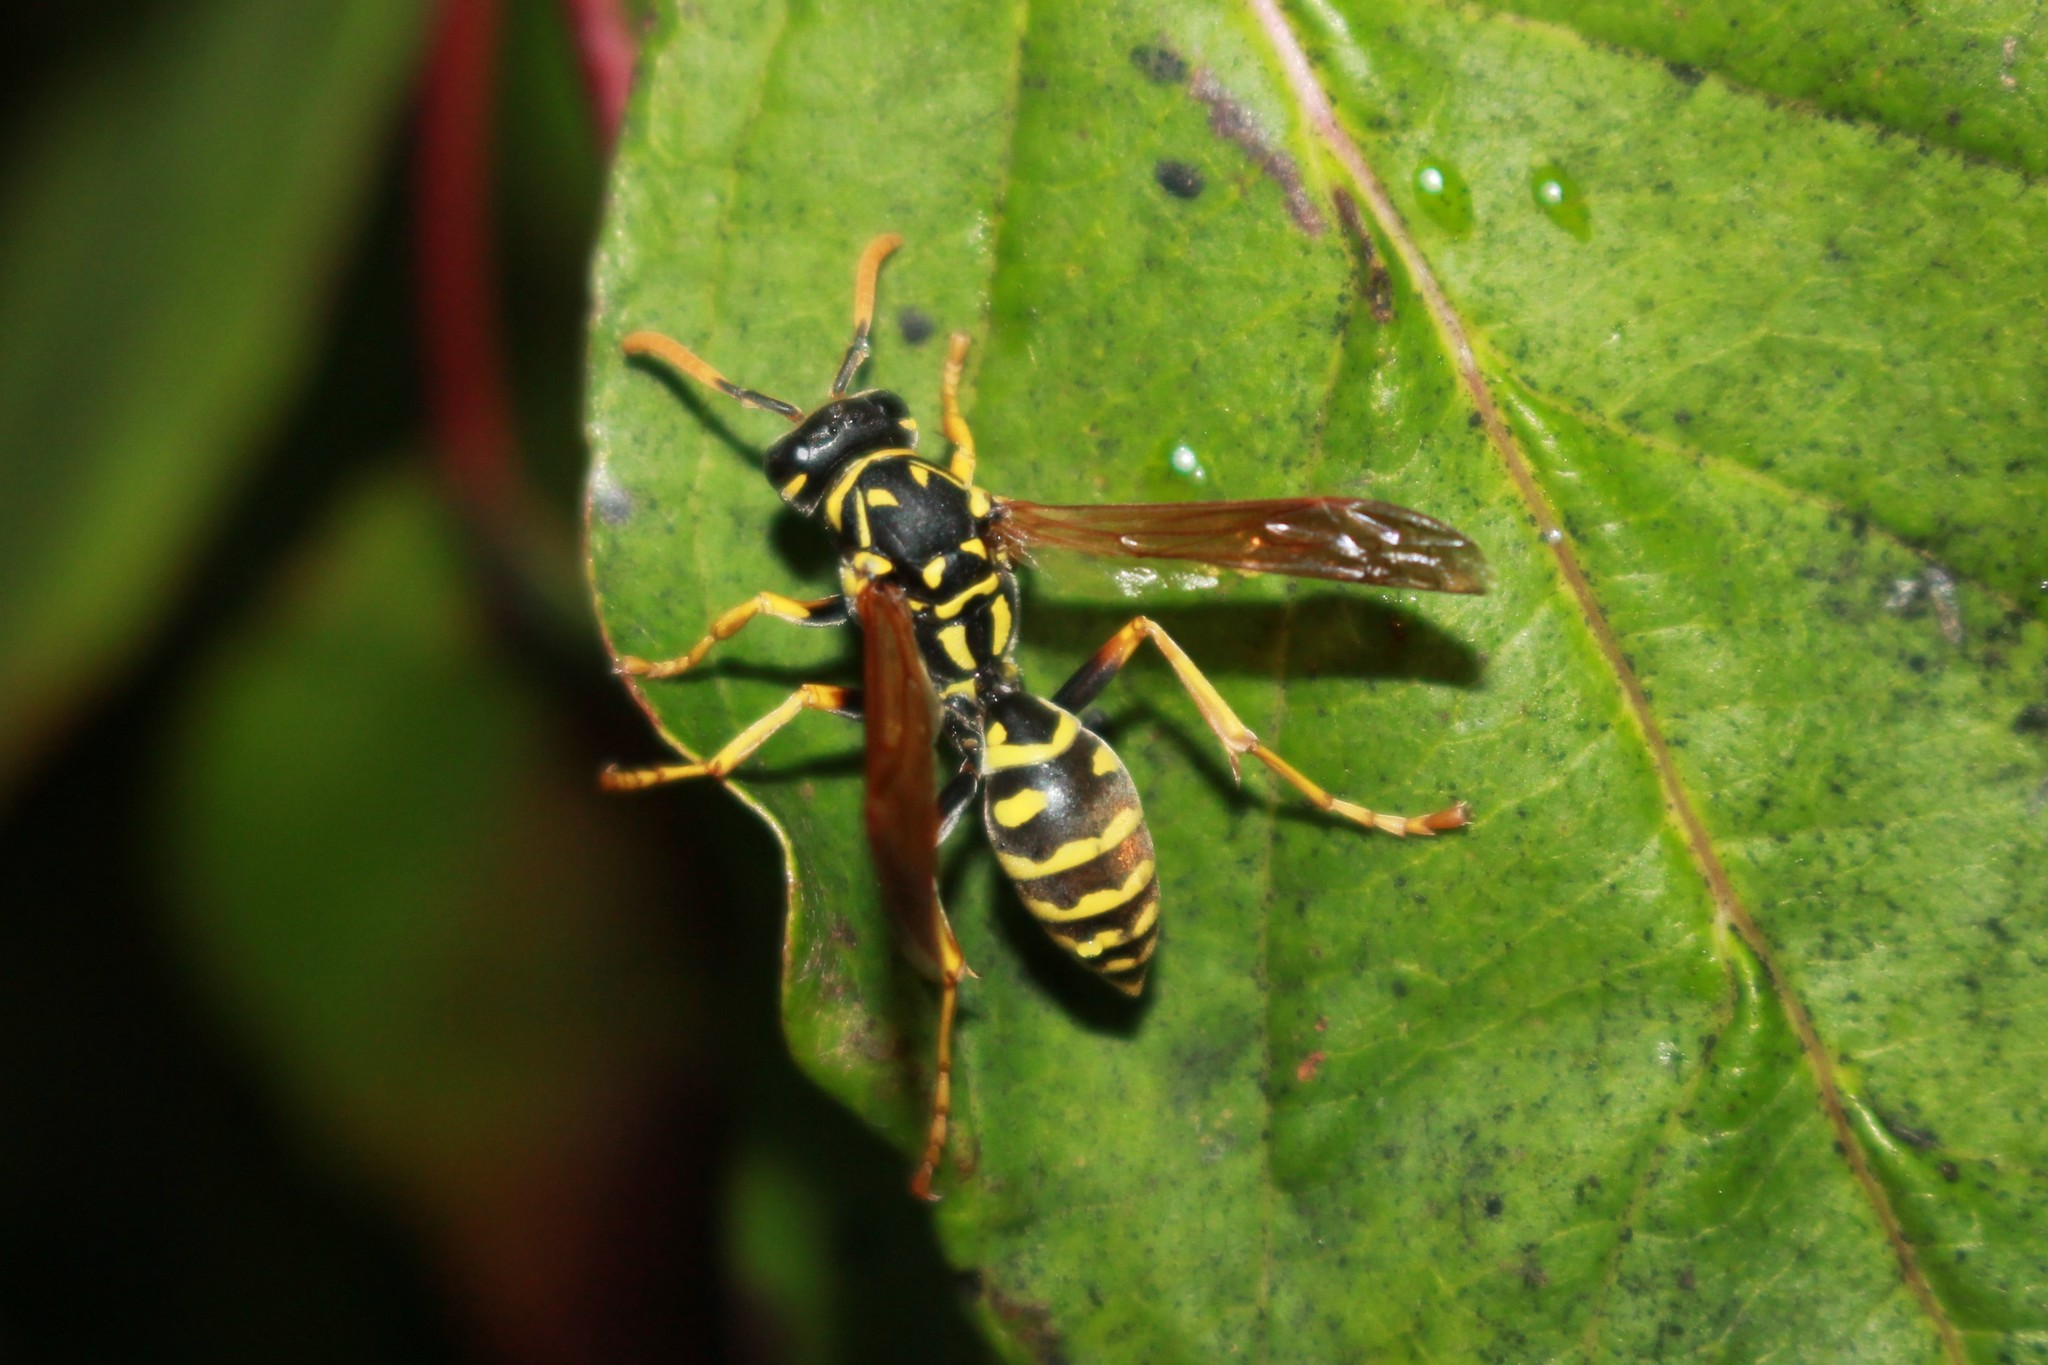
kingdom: Animalia
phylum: Arthropoda
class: Insecta
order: Hymenoptera
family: Eumenidae
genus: Polistes
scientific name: Polistes dominula
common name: Paper wasp
